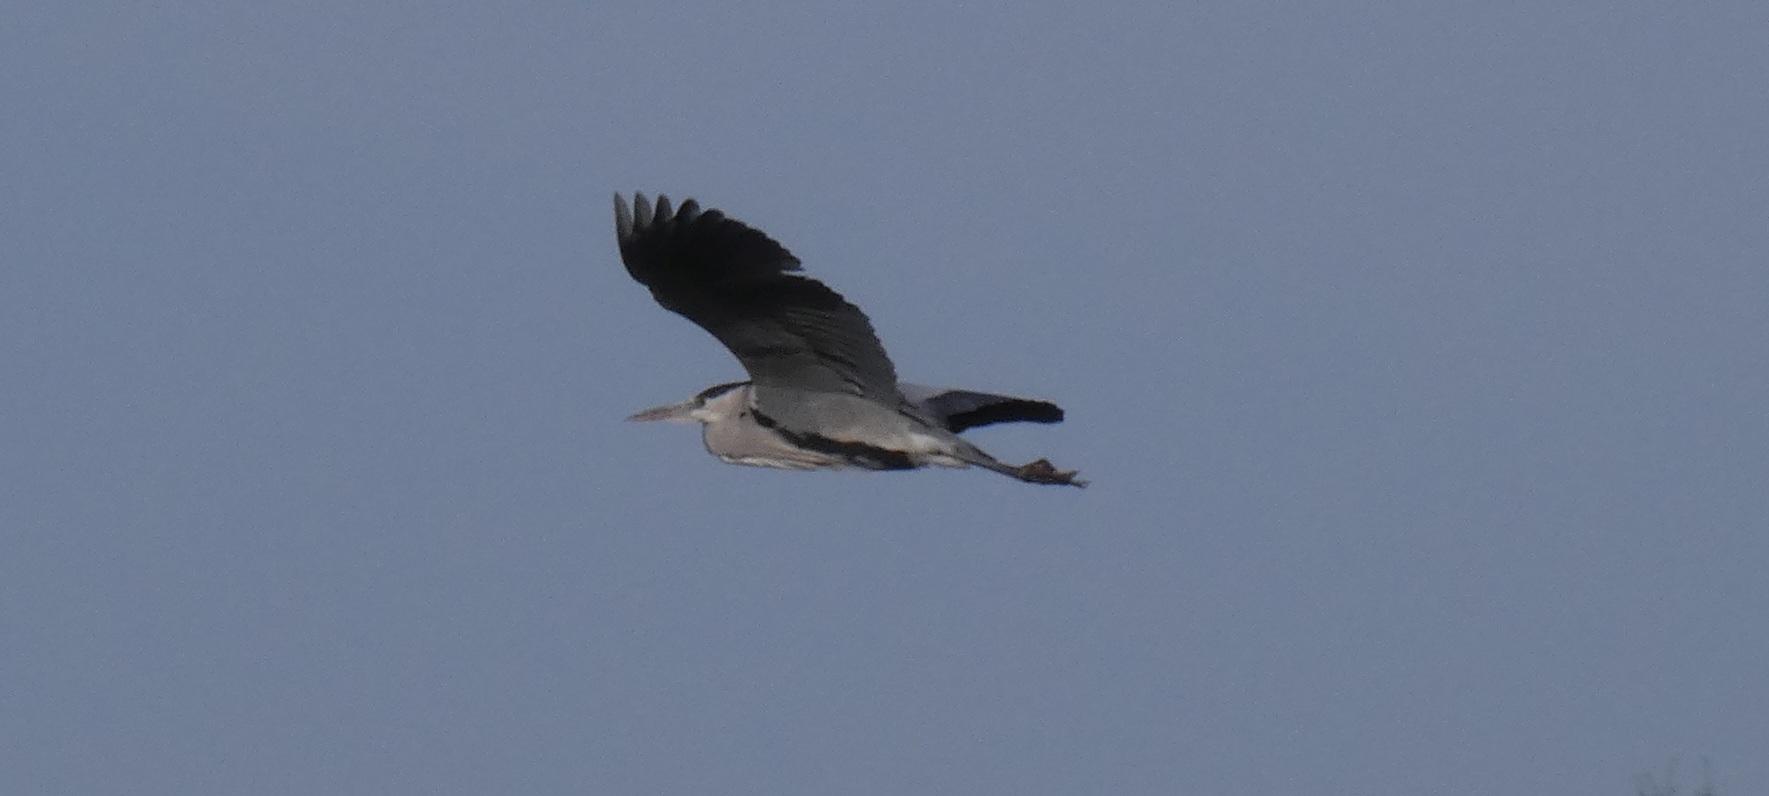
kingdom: Animalia
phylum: Chordata
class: Aves
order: Pelecaniformes
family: Ardeidae
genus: Ardea
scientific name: Ardea cinerea
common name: Grey heron
